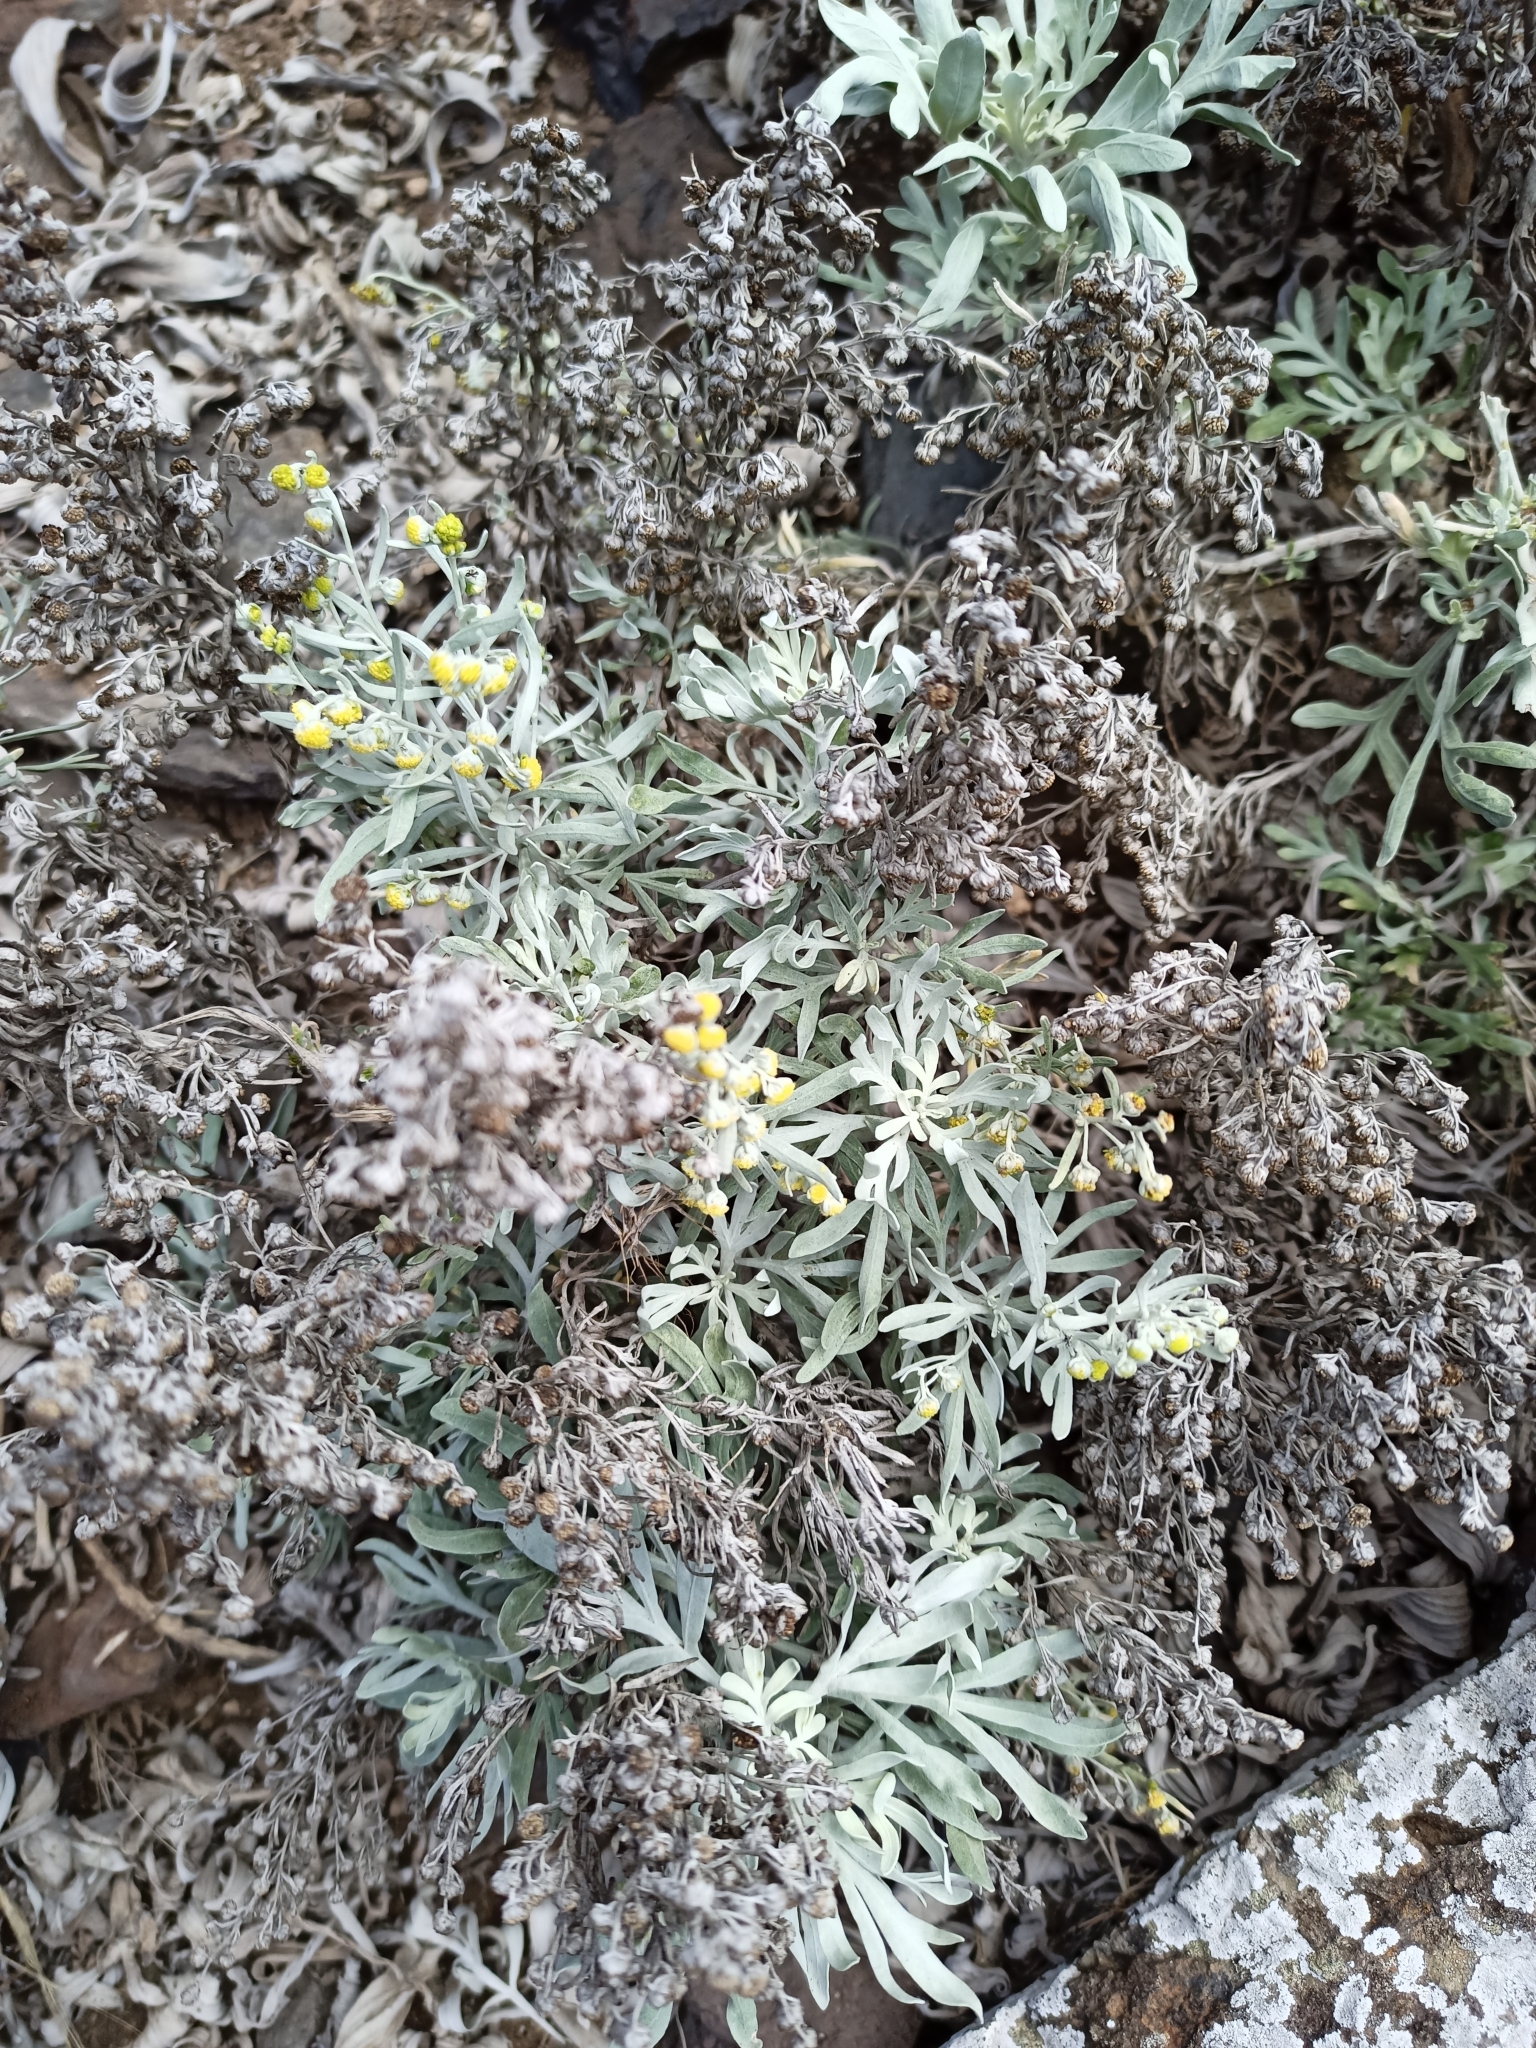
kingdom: Plantae
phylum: Tracheophyta
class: Magnoliopsida
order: Asterales
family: Asteraceae
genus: Artemisia
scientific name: Artemisia argentea
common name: Madeira wormwood
